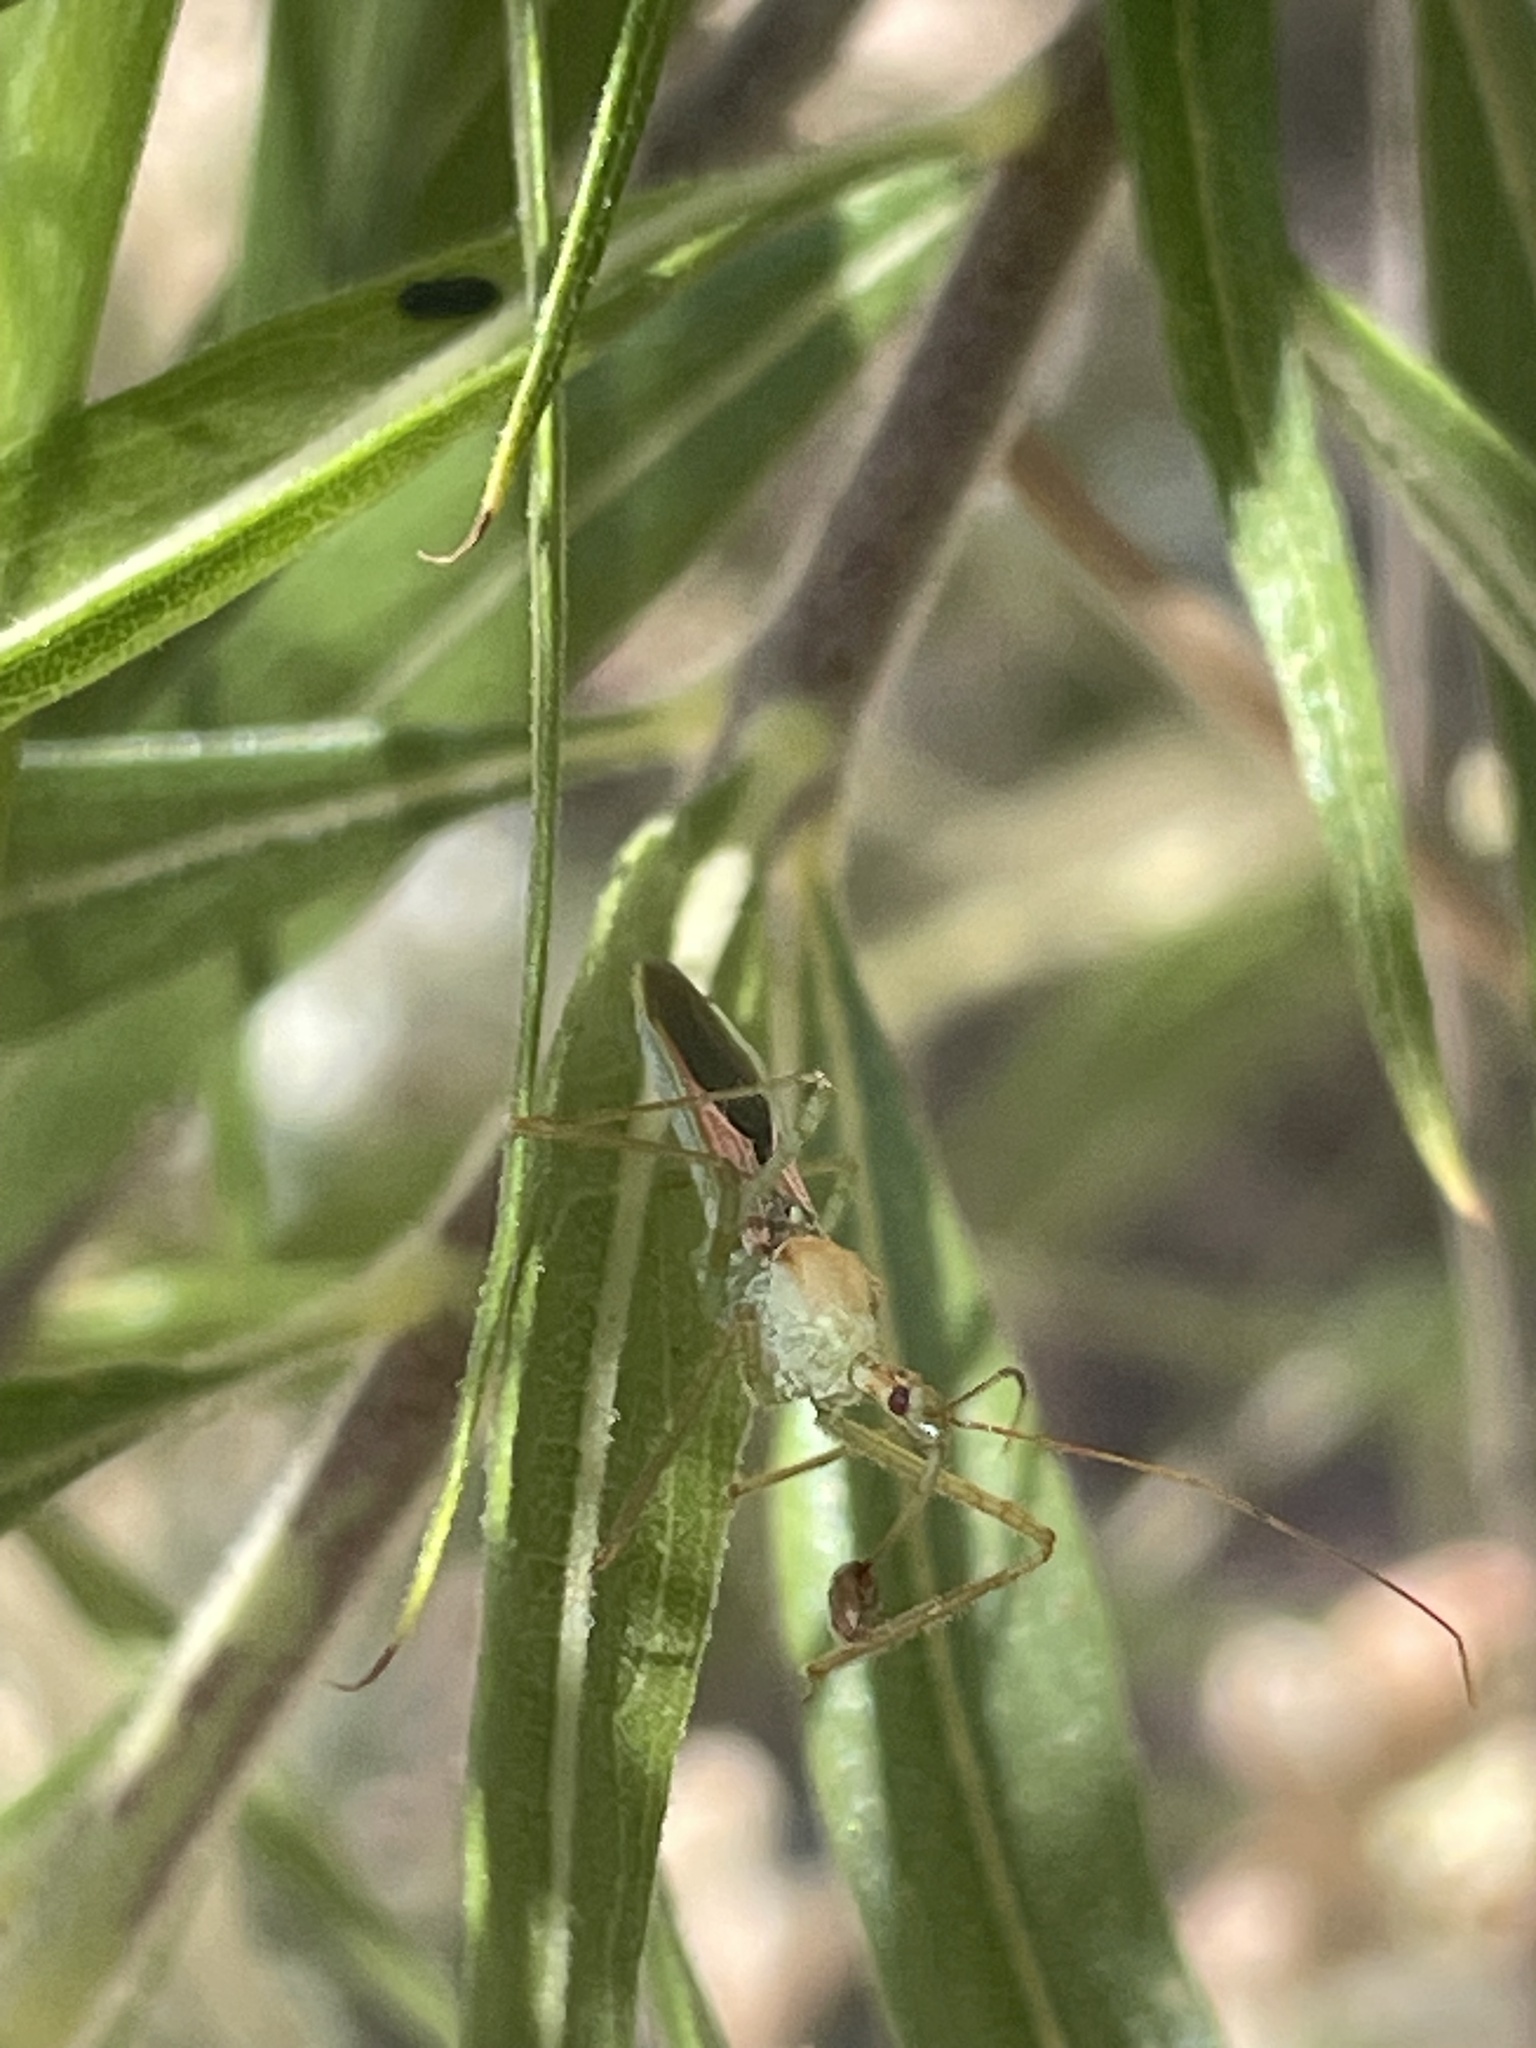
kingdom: Animalia
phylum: Arthropoda
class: Insecta
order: Hemiptera
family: Reduviidae
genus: Zelus
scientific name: Zelus renardii
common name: Assassin bug
